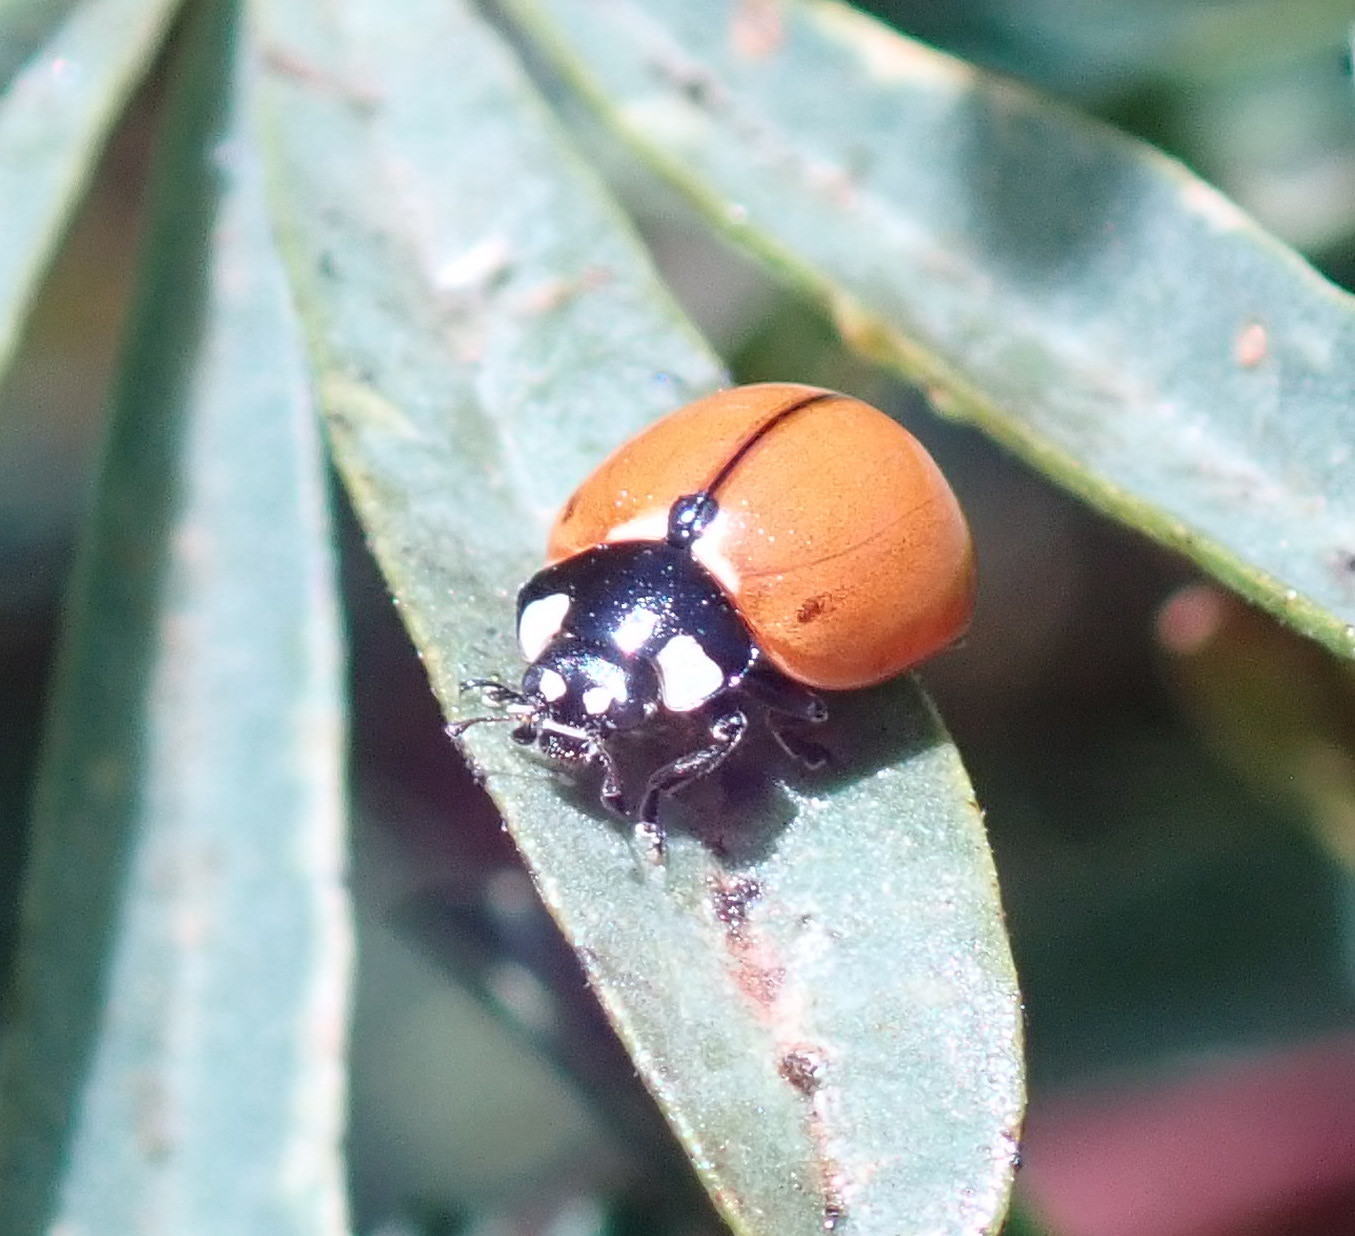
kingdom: Animalia
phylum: Arthropoda
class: Insecta
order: Coleoptera
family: Coccinellidae
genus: Coccinella
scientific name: Coccinella californica
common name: Lady beetle
